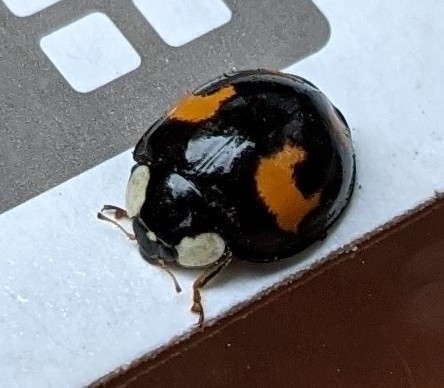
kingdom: Animalia
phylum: Arthropoda
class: Insecta
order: Coleoptera
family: Coccinellidae
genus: Harmonia
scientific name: Harmonia axyridis
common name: Harlequin ladybird
